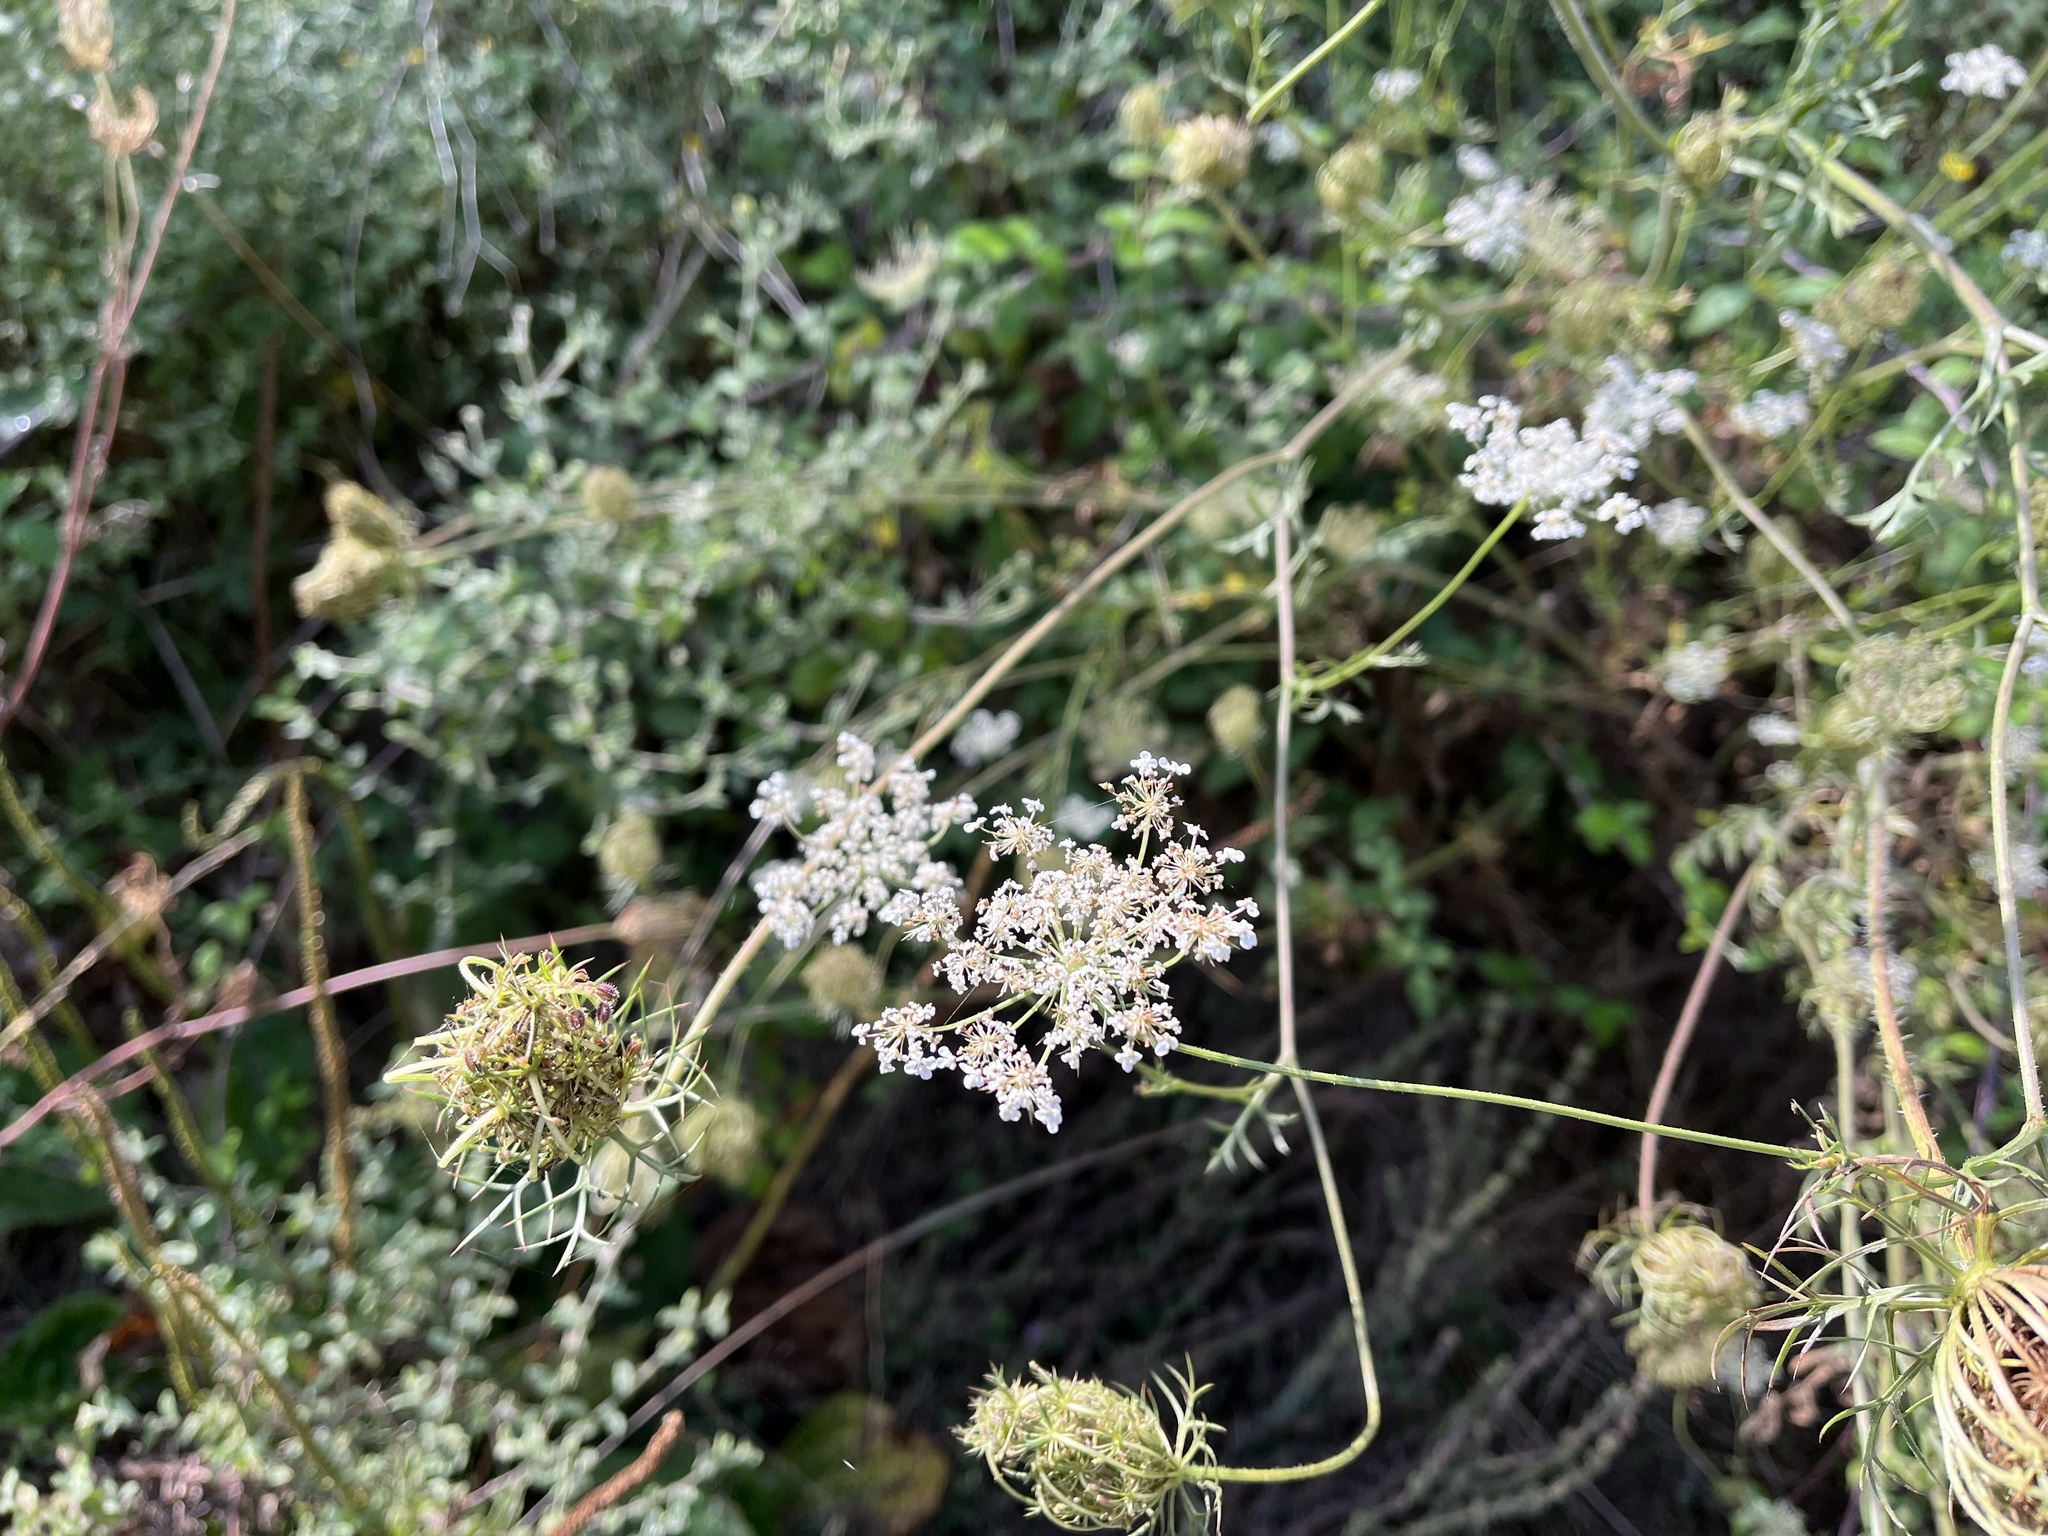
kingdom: Plantae
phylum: Tracheophyta
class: Magnoliopsida
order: Apiales
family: Apiaceae
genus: Daucus
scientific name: Daucus carota
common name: Wild carrot
